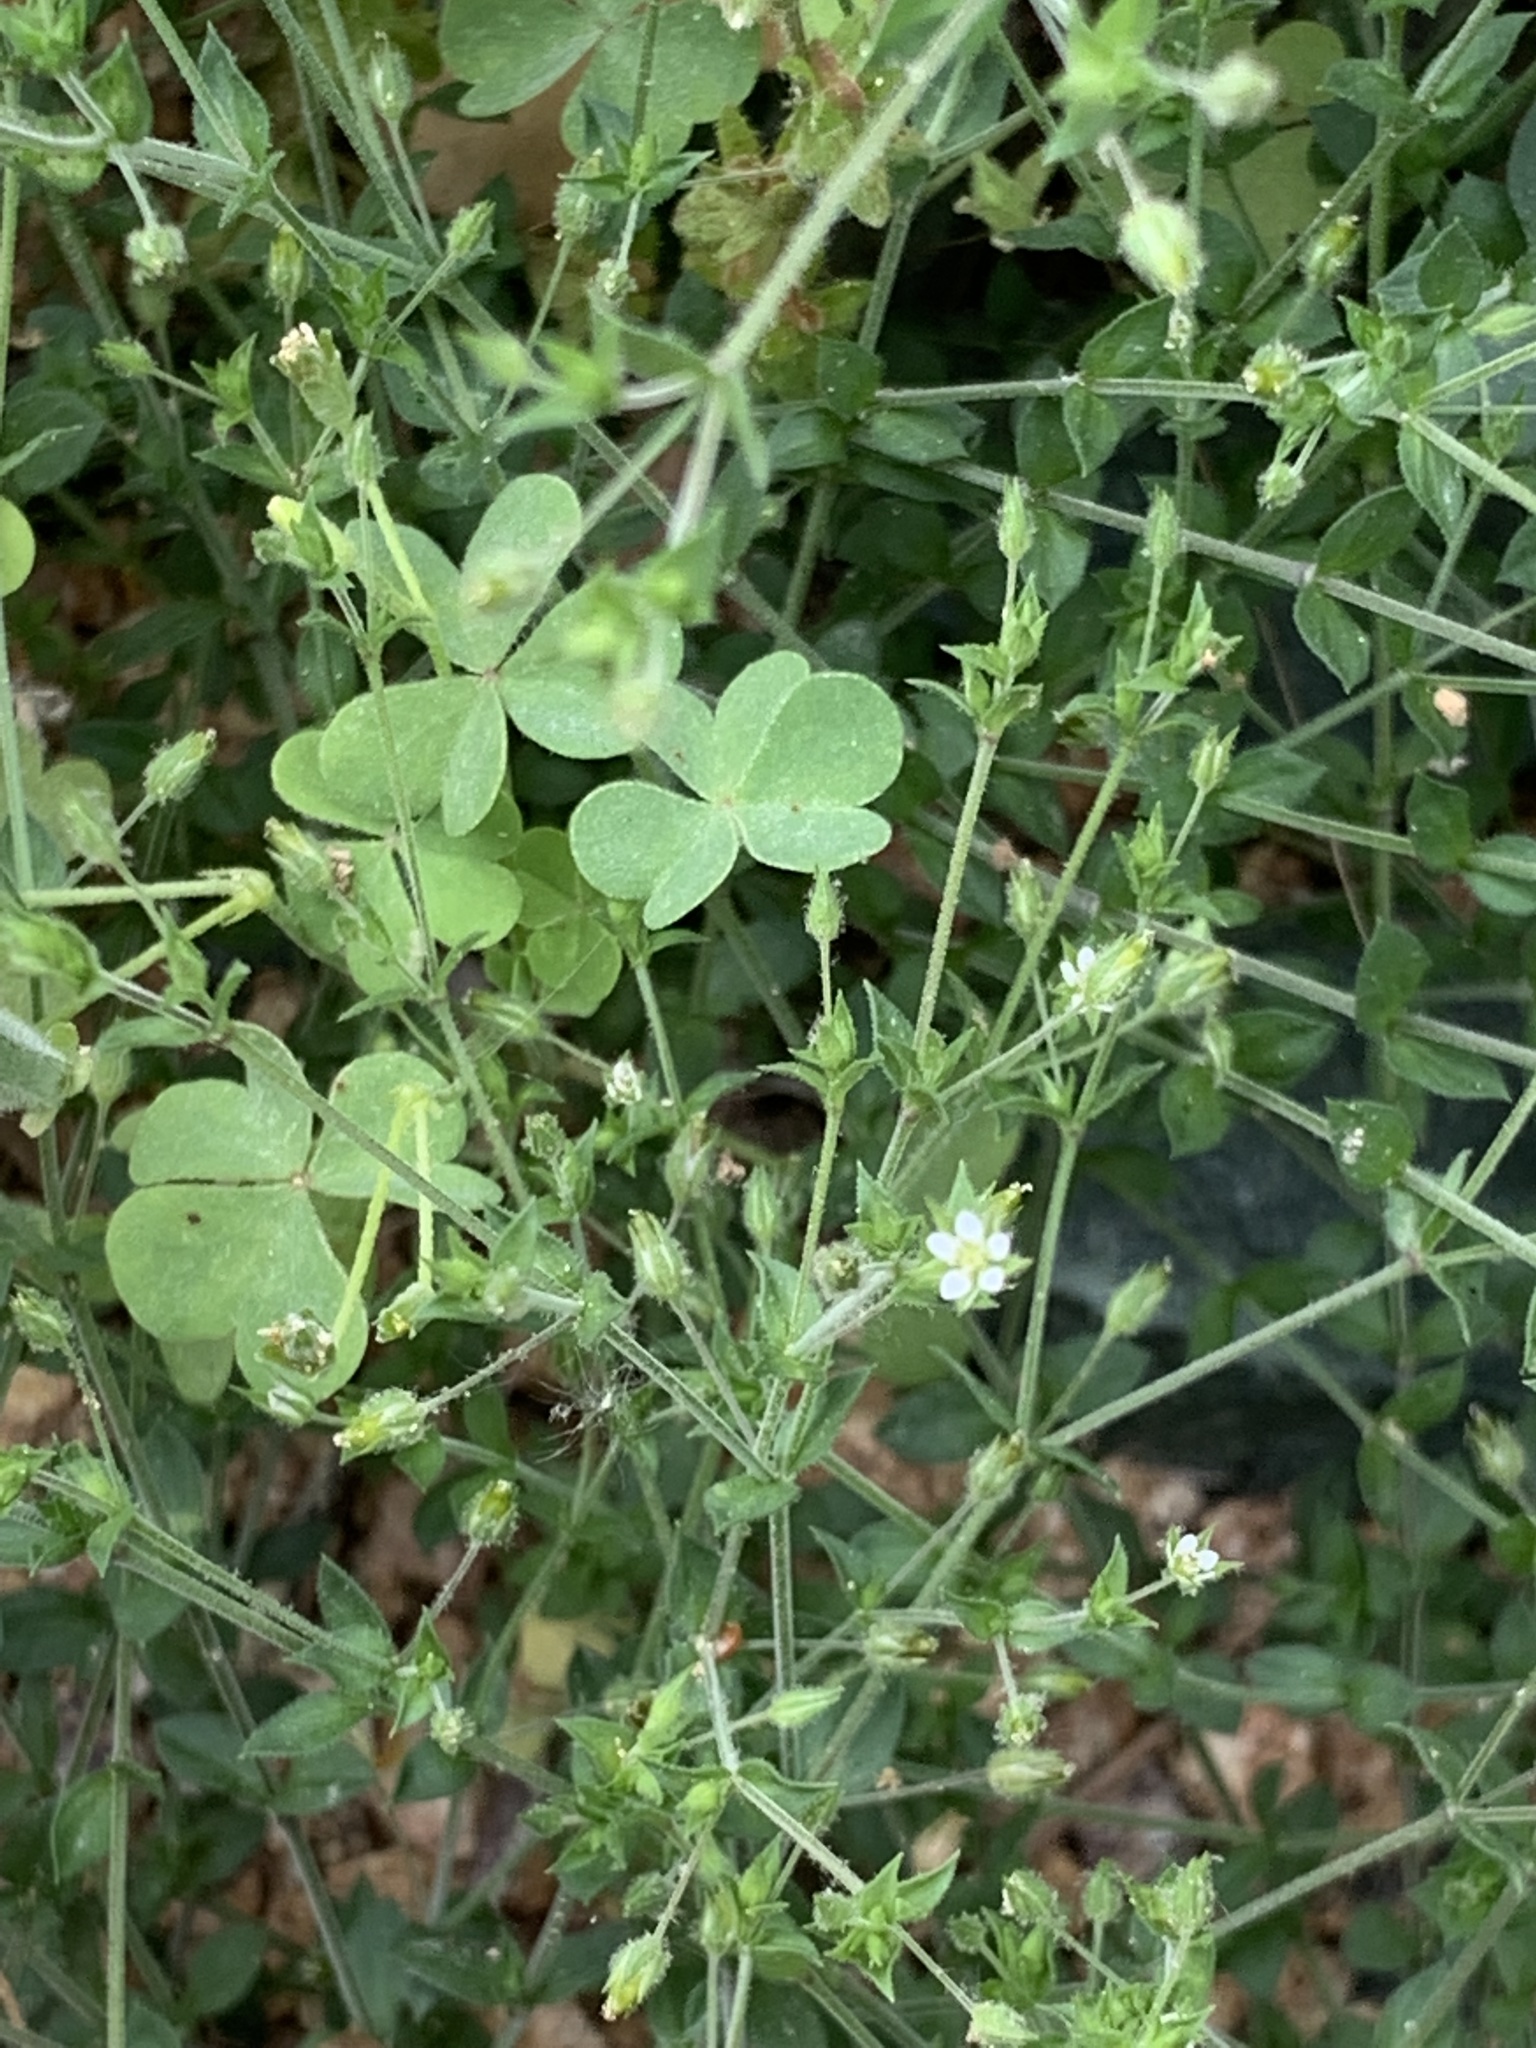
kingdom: Plantae
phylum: Tracheophyta
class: Magnoliopsida
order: Caryophyllales
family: Caryophyllaceae
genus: Arenaria
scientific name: Arenaria serpyllifolia
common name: Thyme-leaved sandwort
